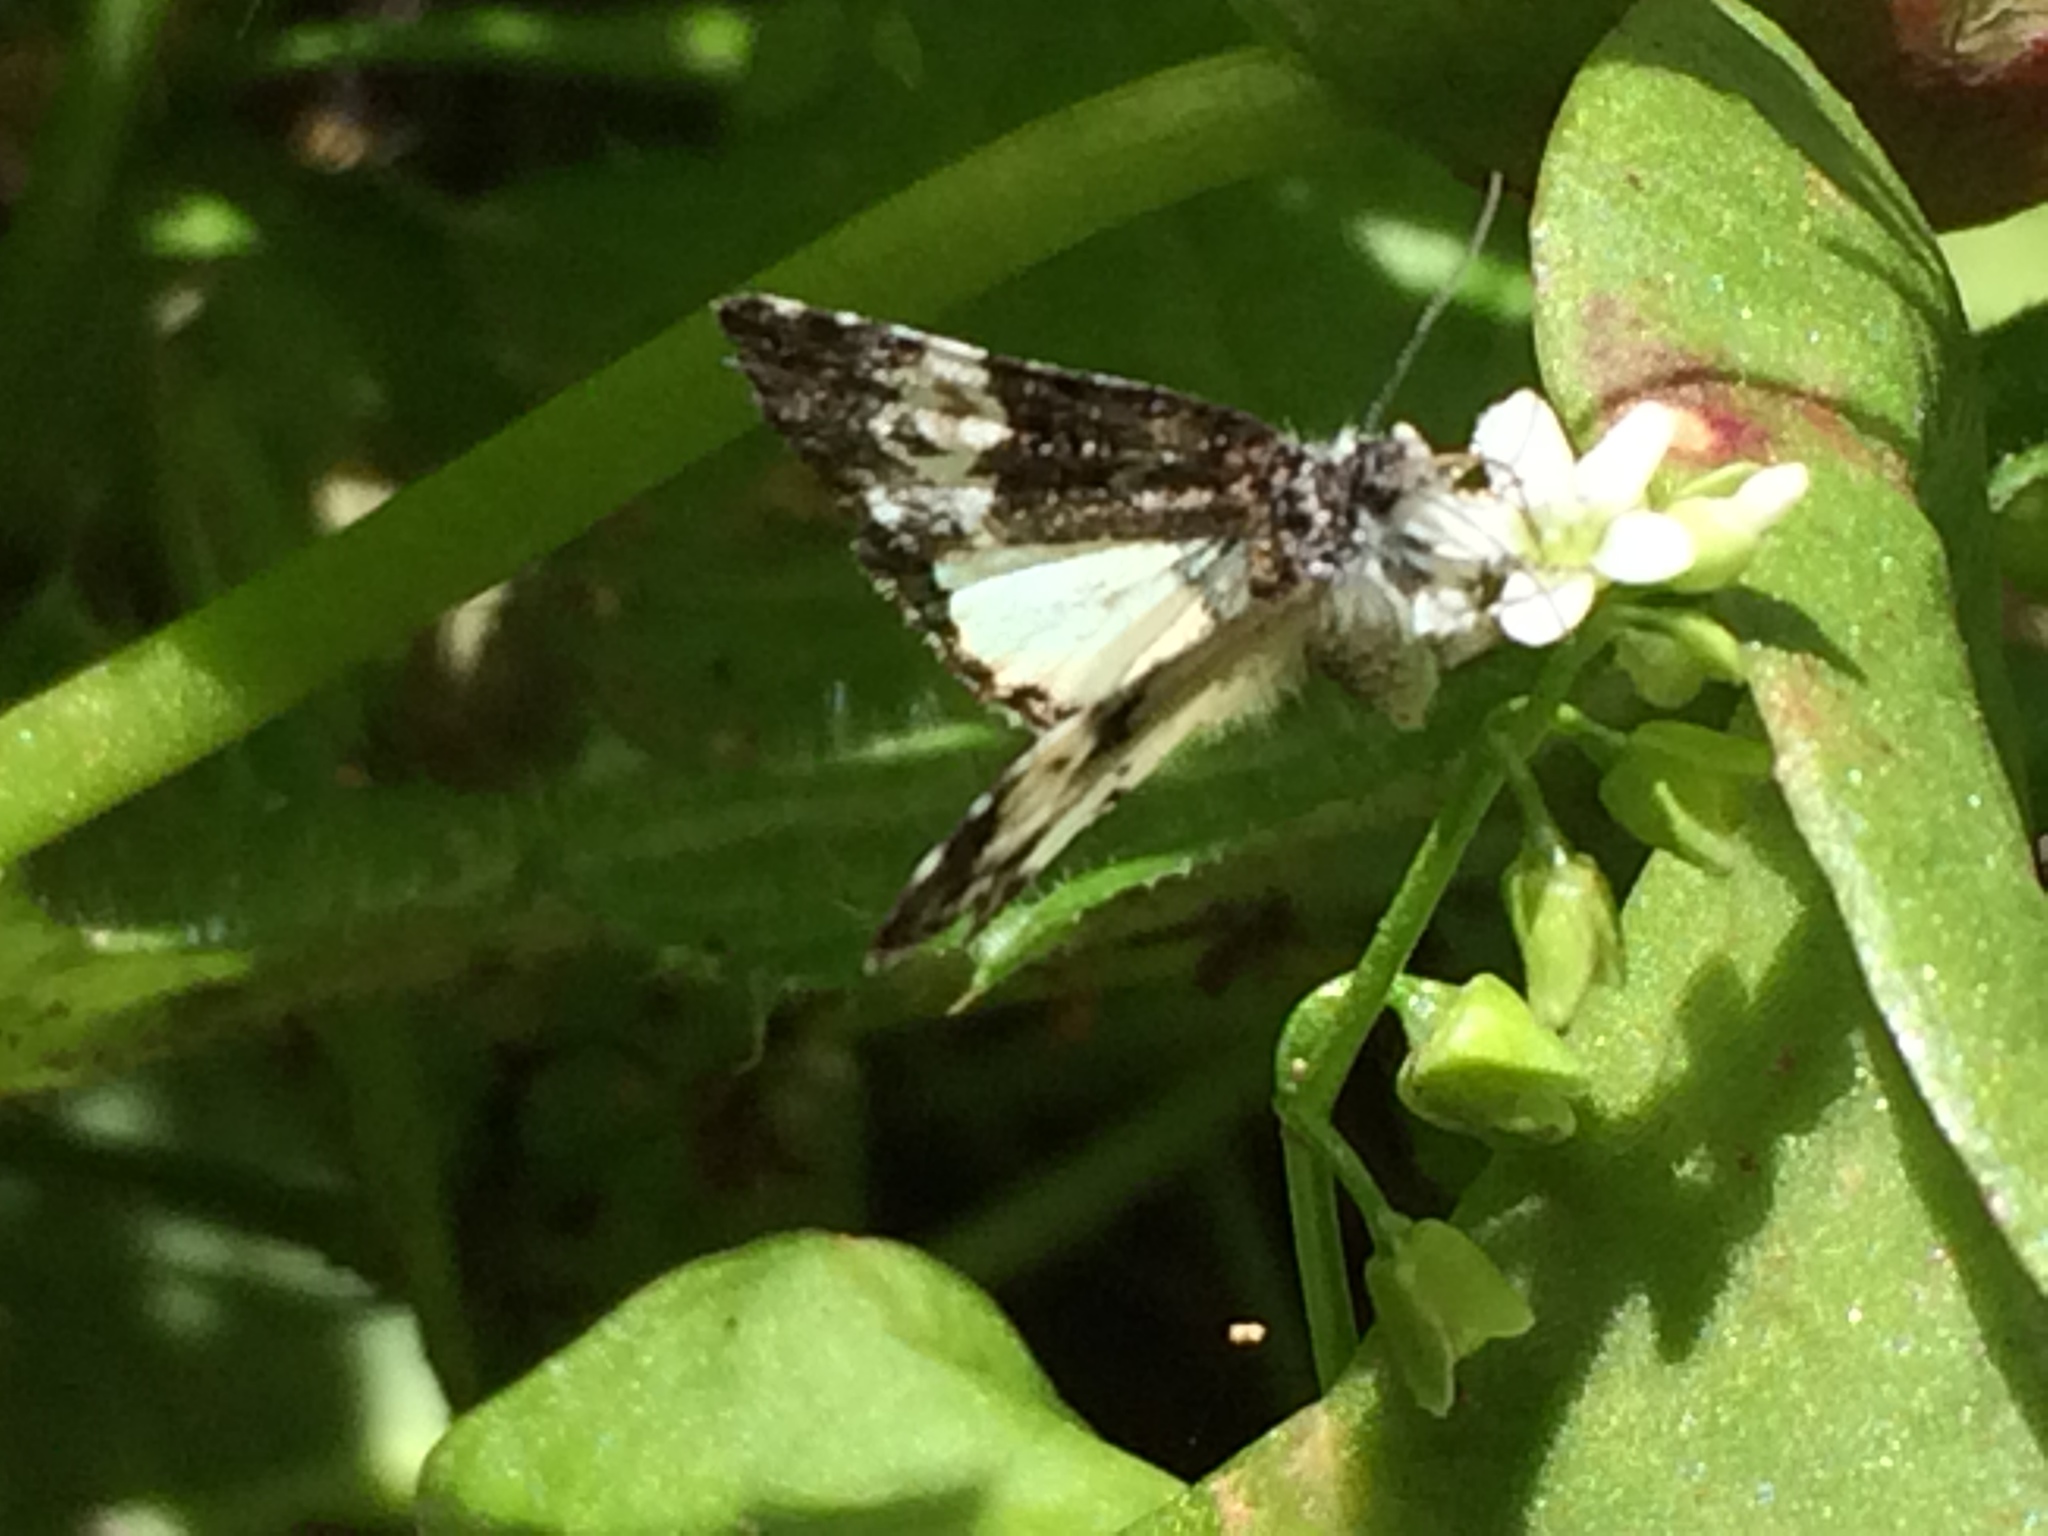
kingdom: Animalia
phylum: Arthropoda
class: Insecta
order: Lepidoptera
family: Noctuidae
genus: Annaphila
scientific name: Annaphila diva
